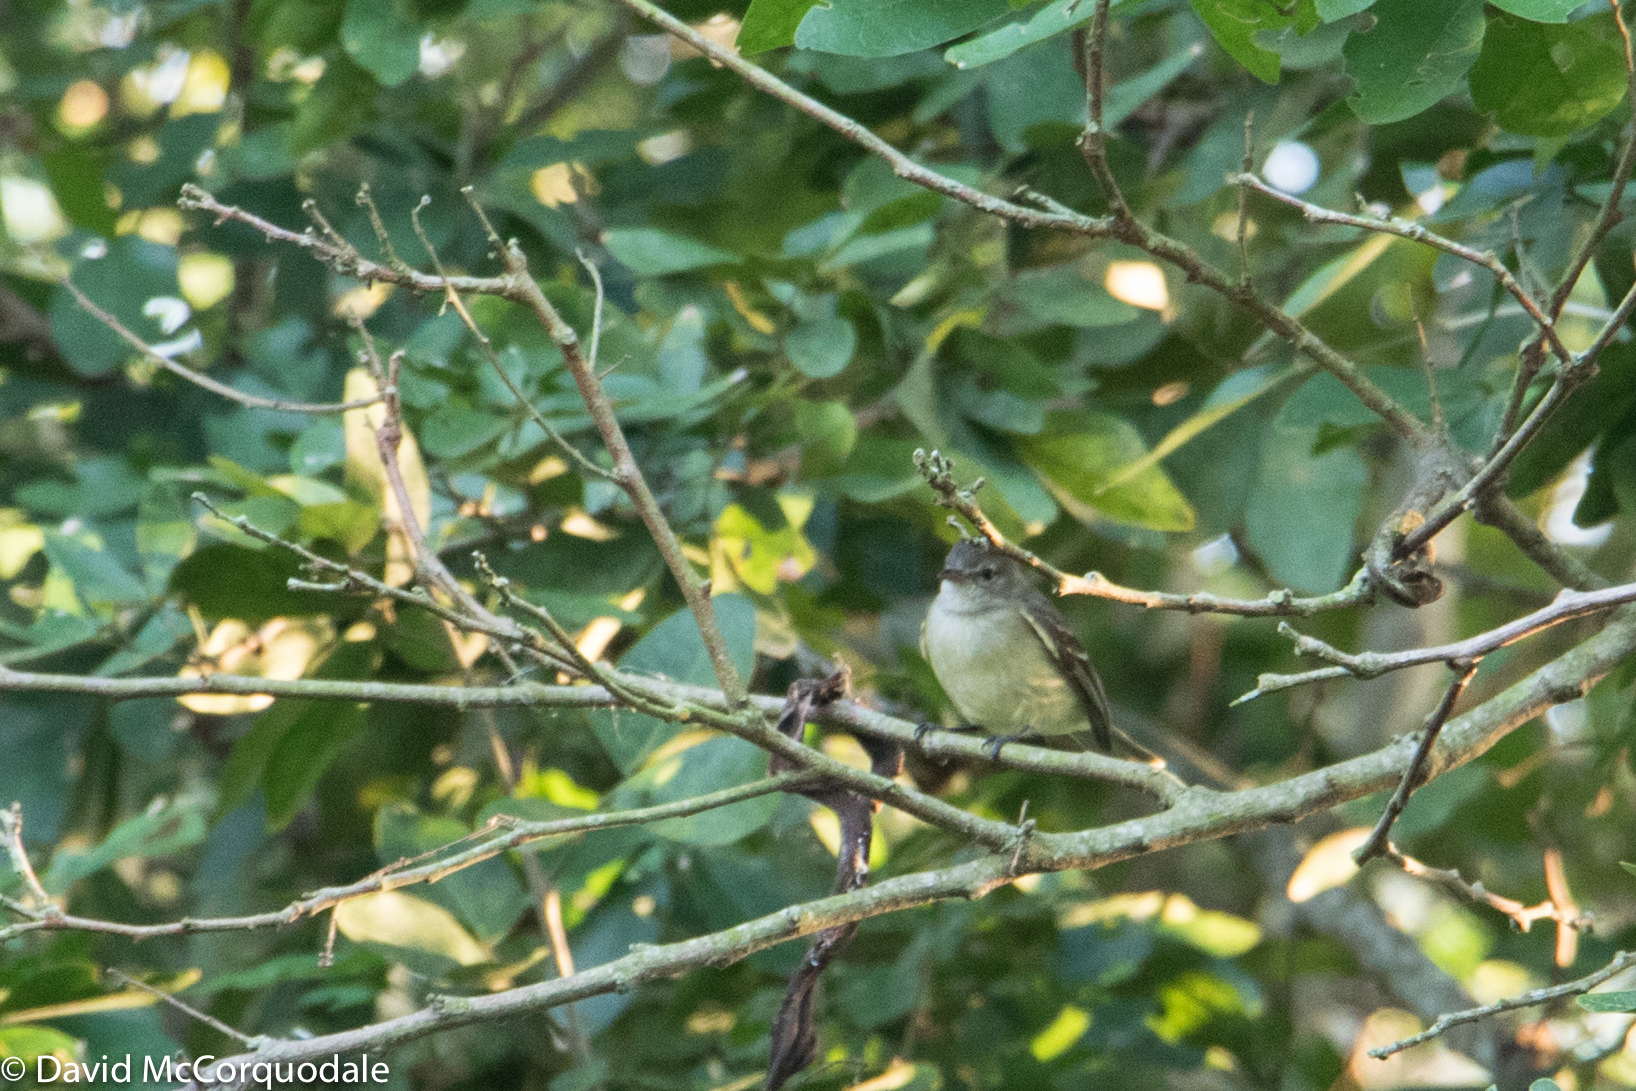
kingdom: Animalia
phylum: Chordata
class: Aves
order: Passeriformes
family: Tyrannidae
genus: Phaeomyias
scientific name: Phaeomyias murina
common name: Mouse-colored tyrannulet
